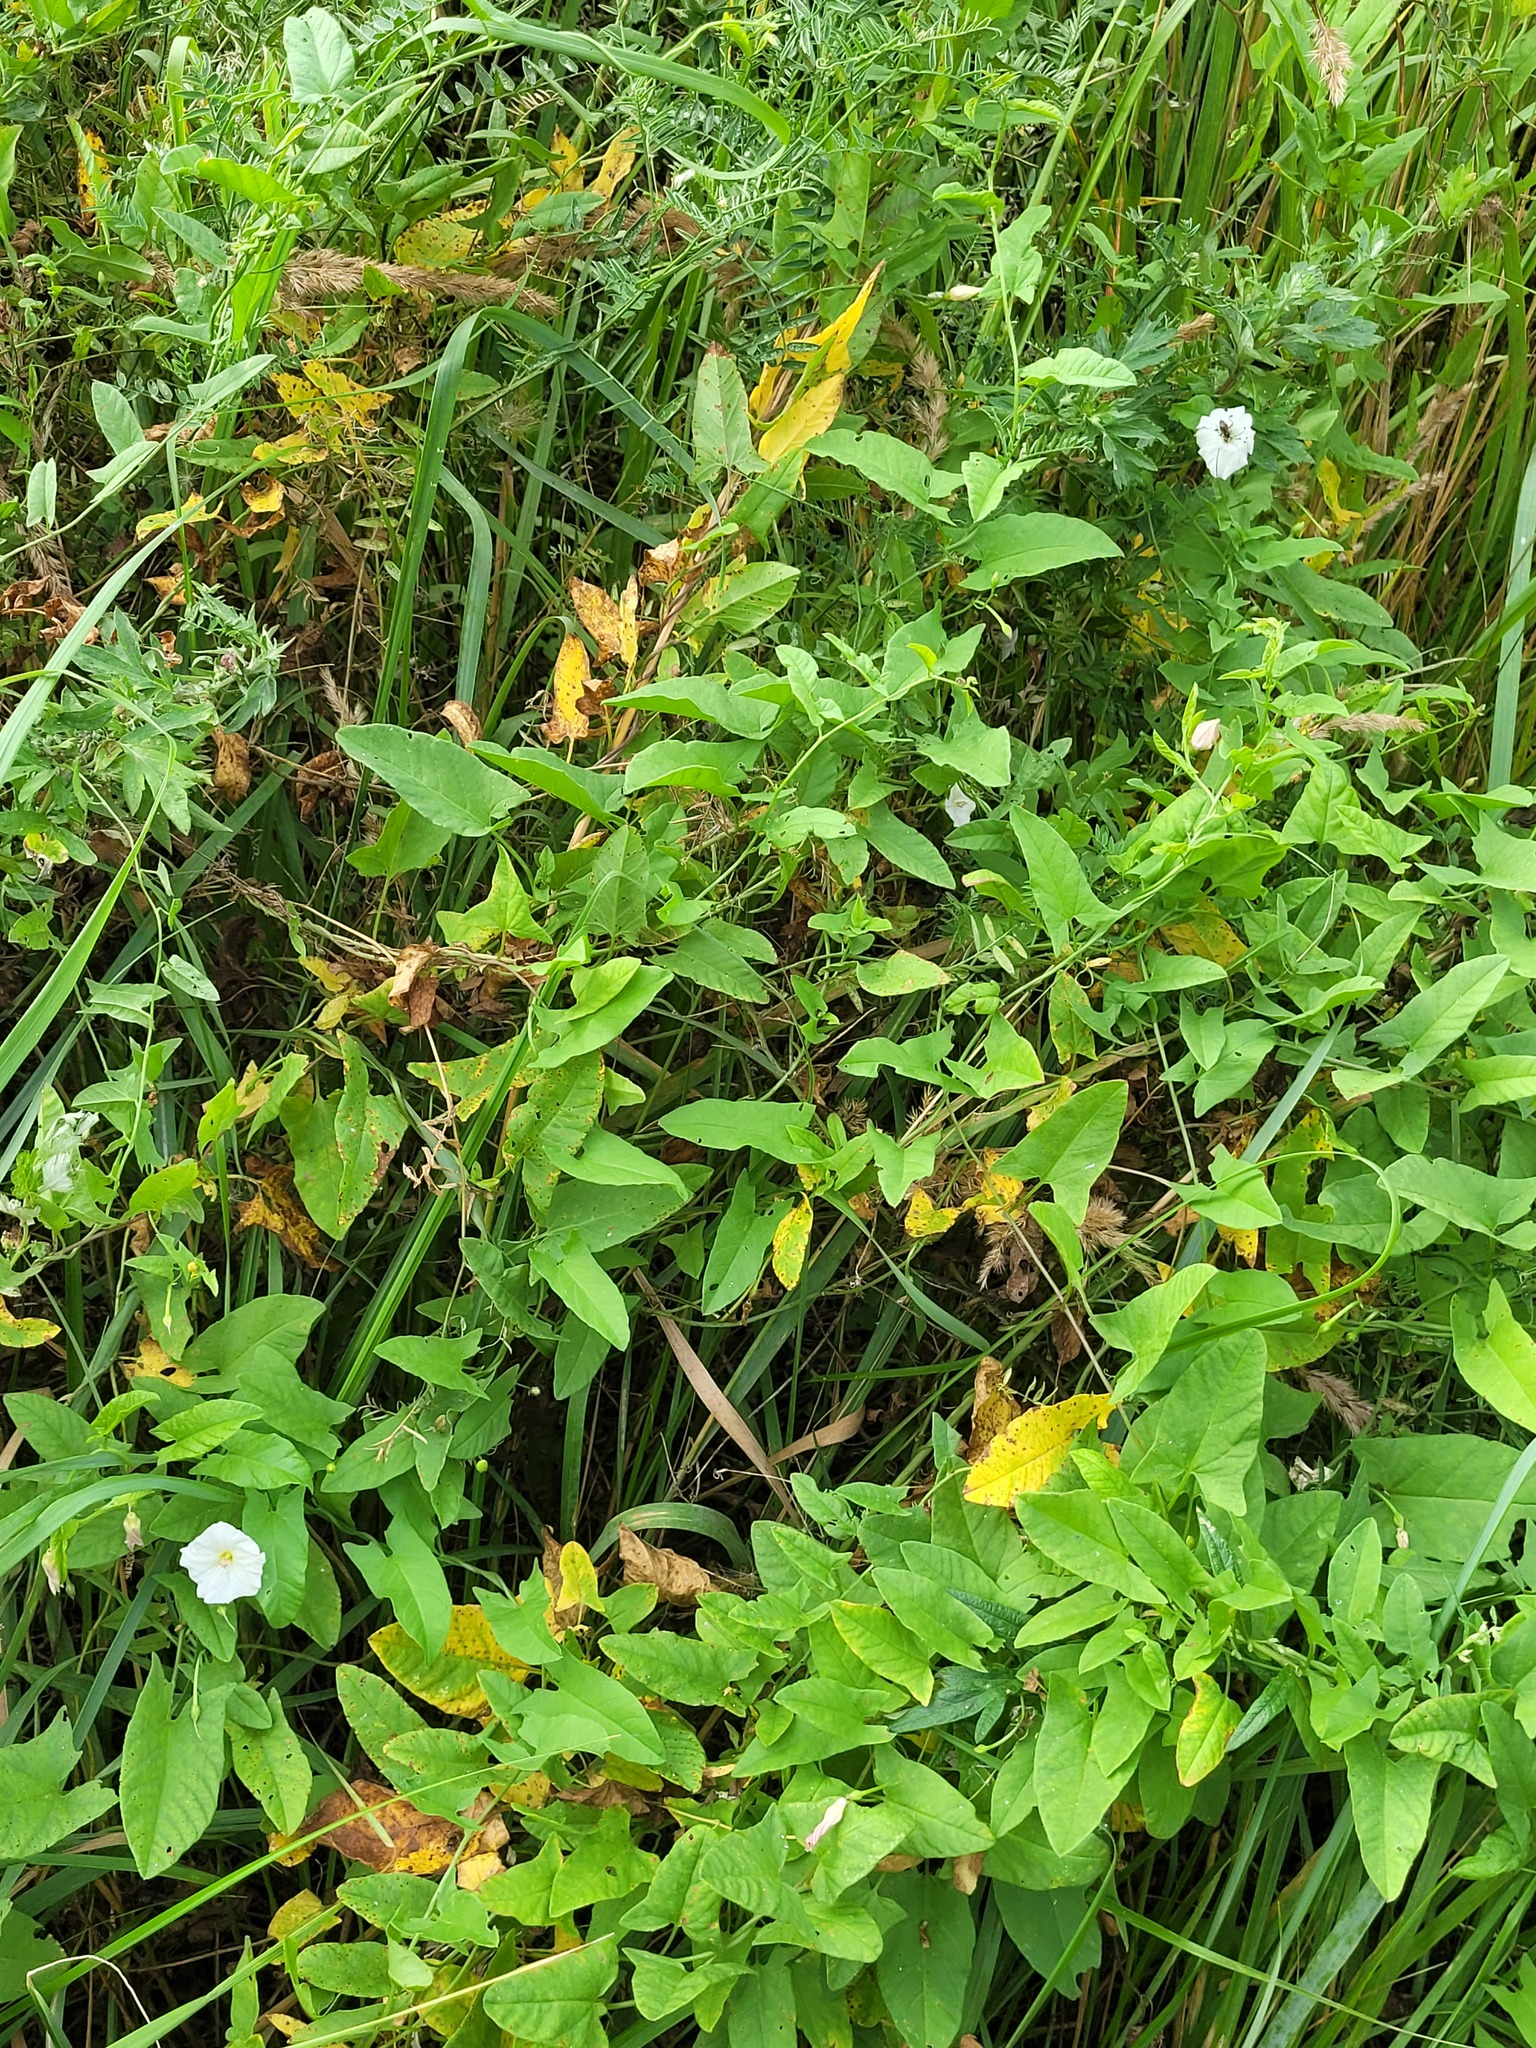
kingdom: Plantae
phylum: Tracheophyta
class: Magnoliopsida
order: Solanales
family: Convolvulaceae
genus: Convolvulus
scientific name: Convolvulus arvensis
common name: Field bindweed
